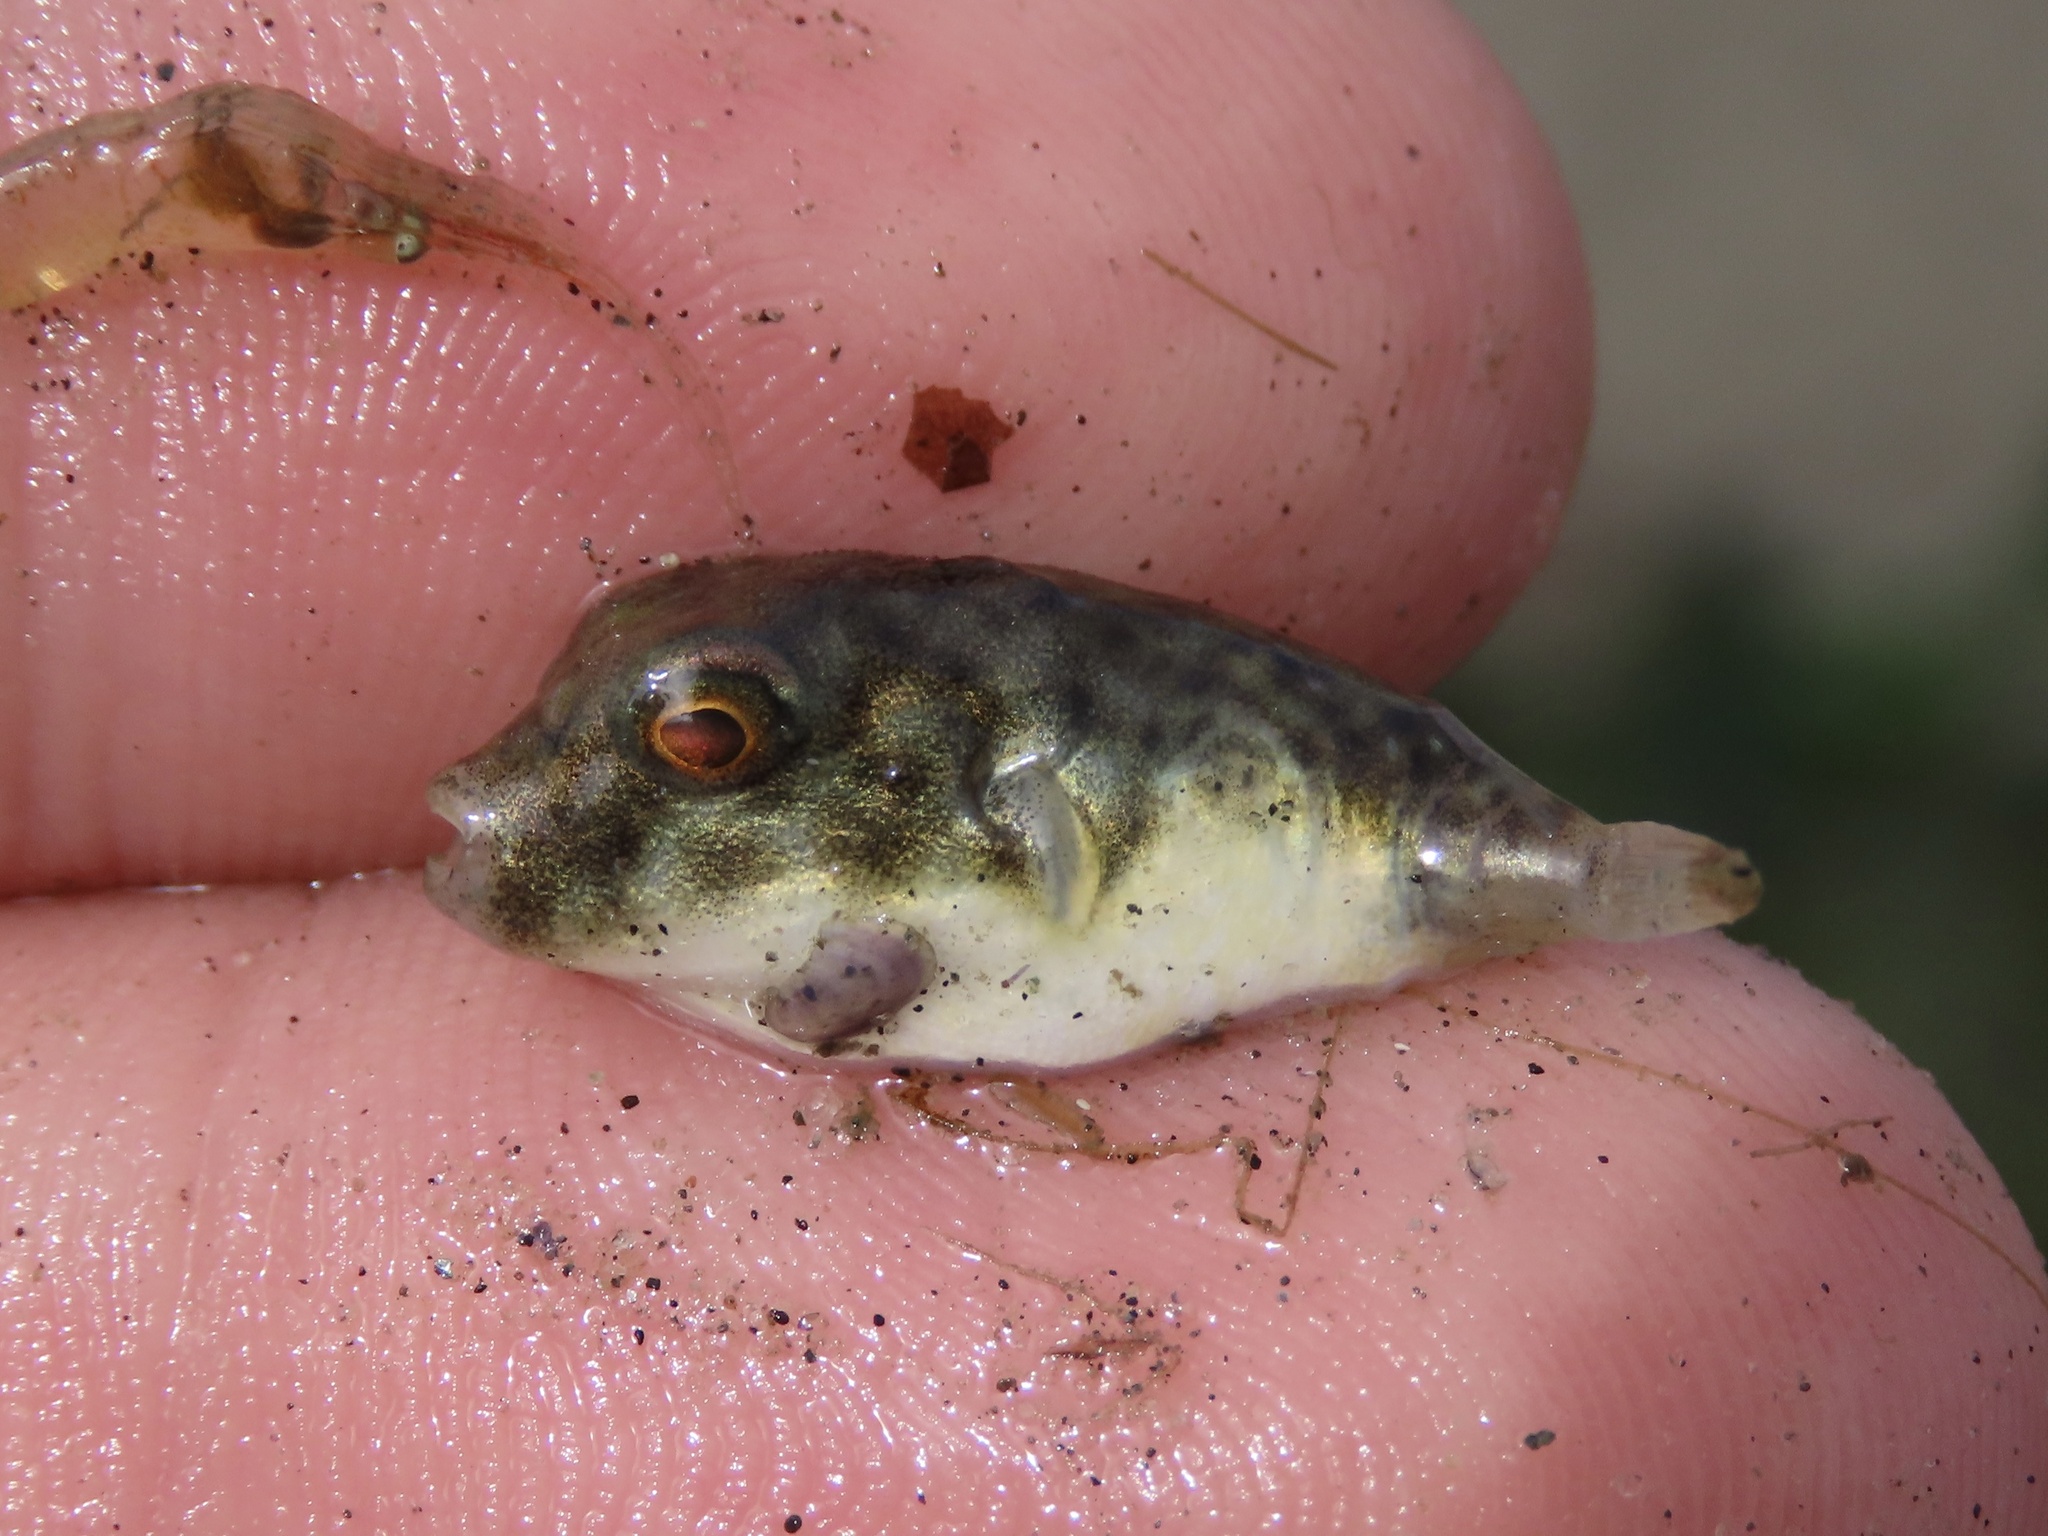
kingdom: Animalia
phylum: Chordata
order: Tetraodontiformes
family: Tetraodontidae
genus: Sphoeroides
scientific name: Sphoeroides maculatus
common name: Northern puffer
